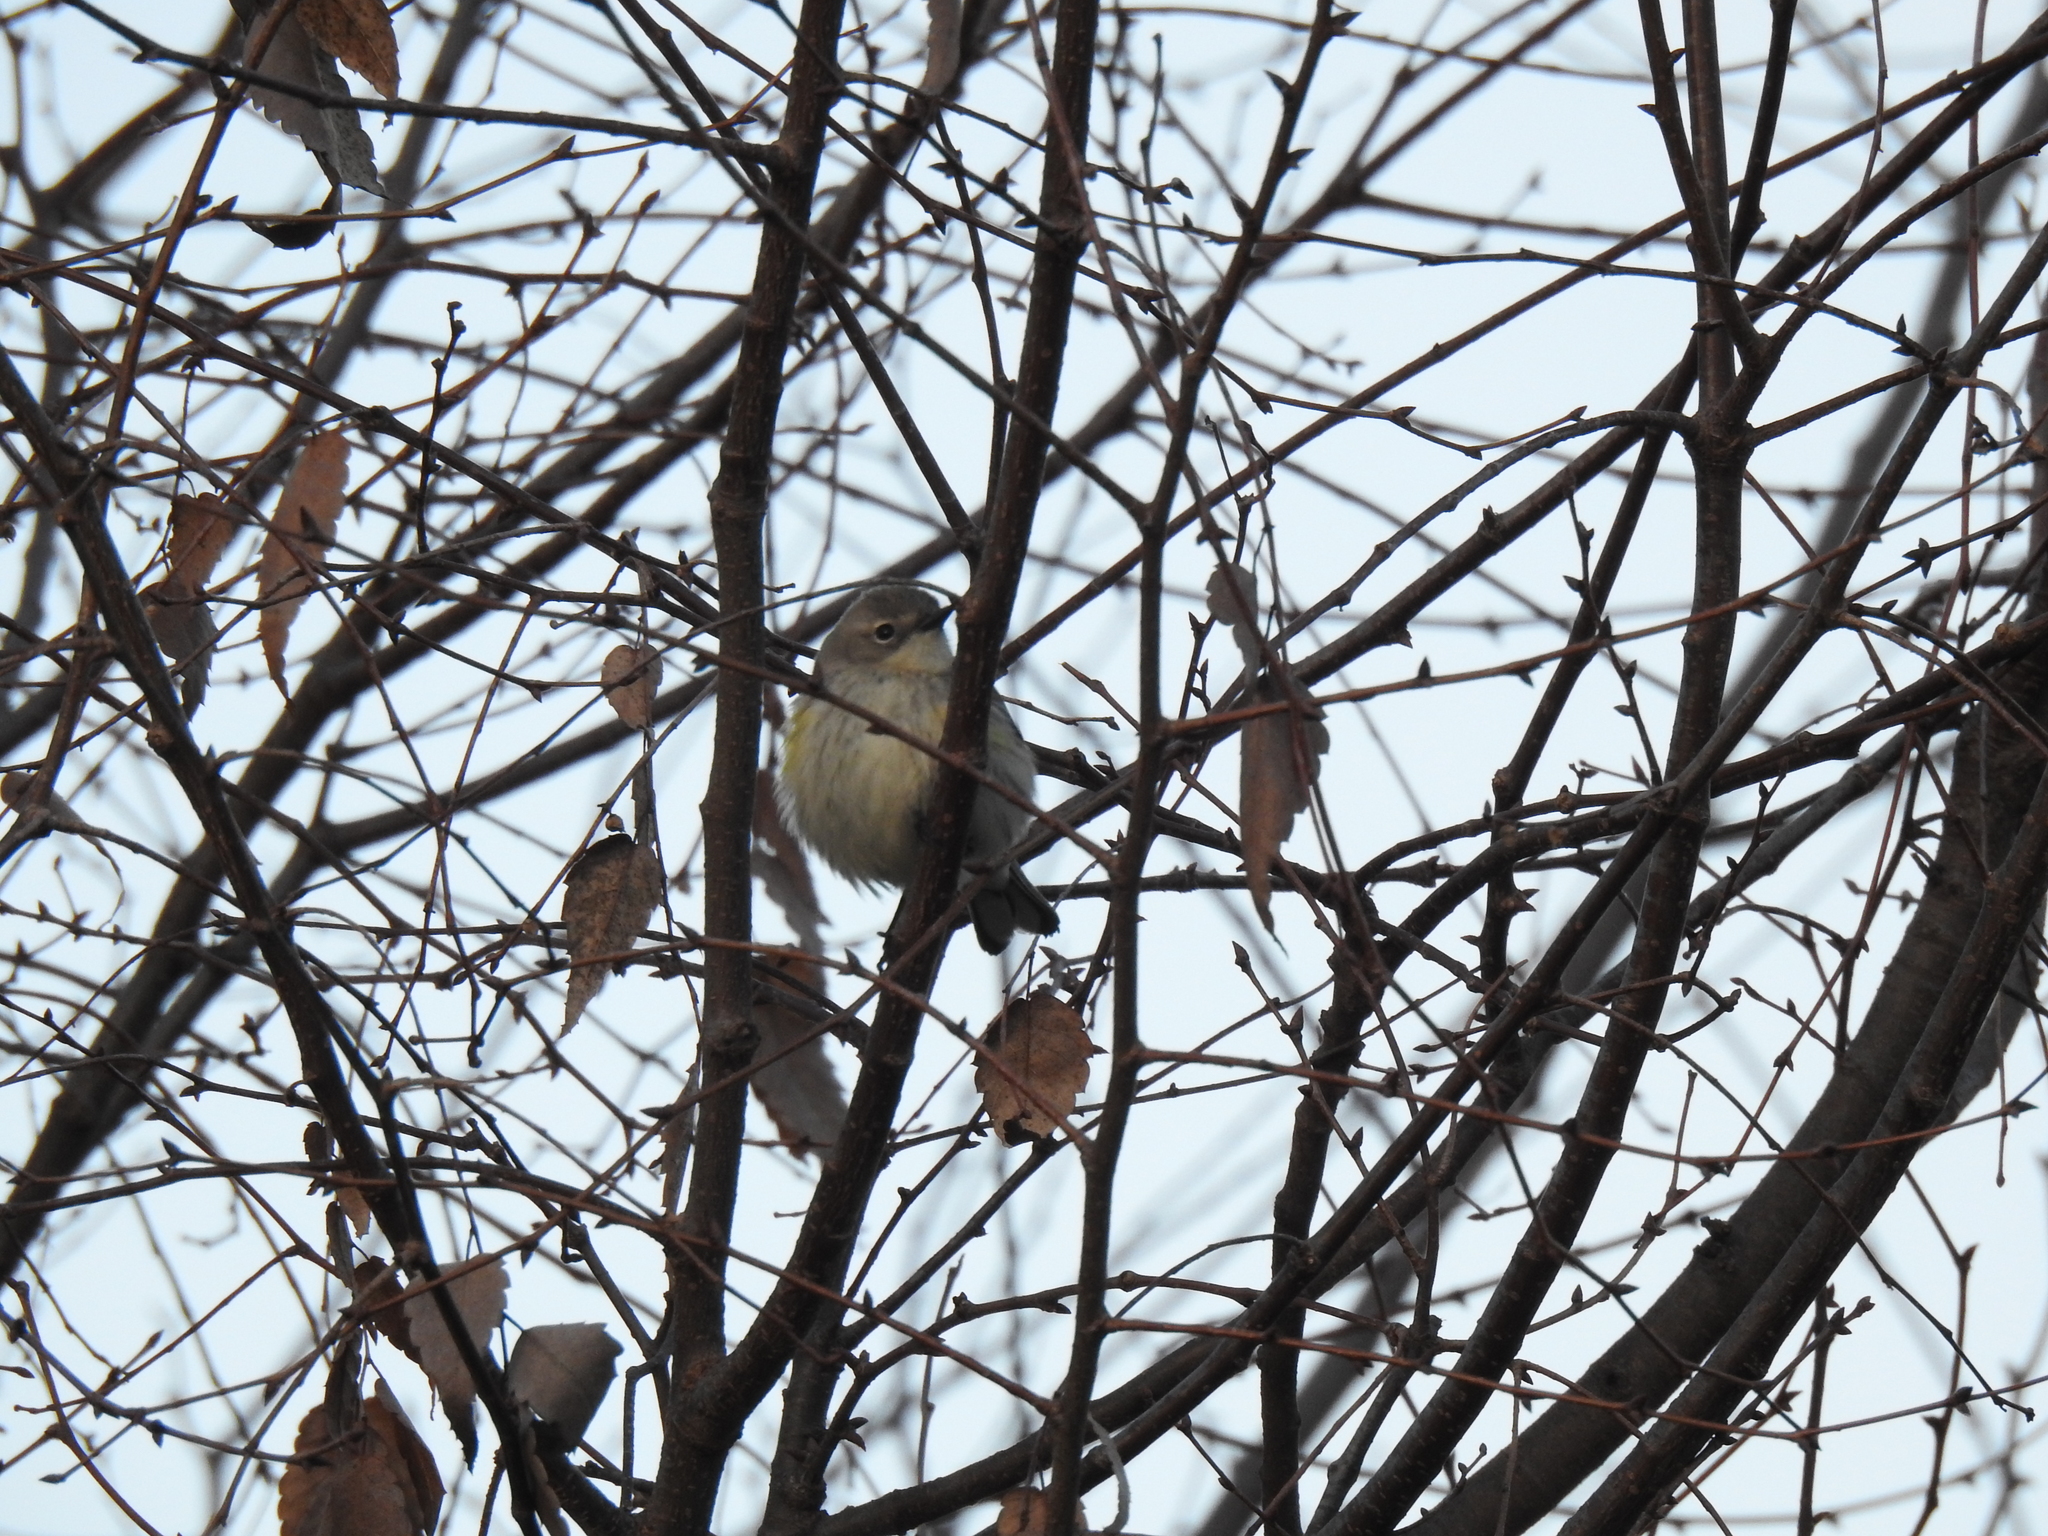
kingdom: Animalia
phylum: Chordata
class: Aves
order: Passeriformes
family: Parulidae
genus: Setophaga
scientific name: Setophaga coronata
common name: Myrtle warbler
